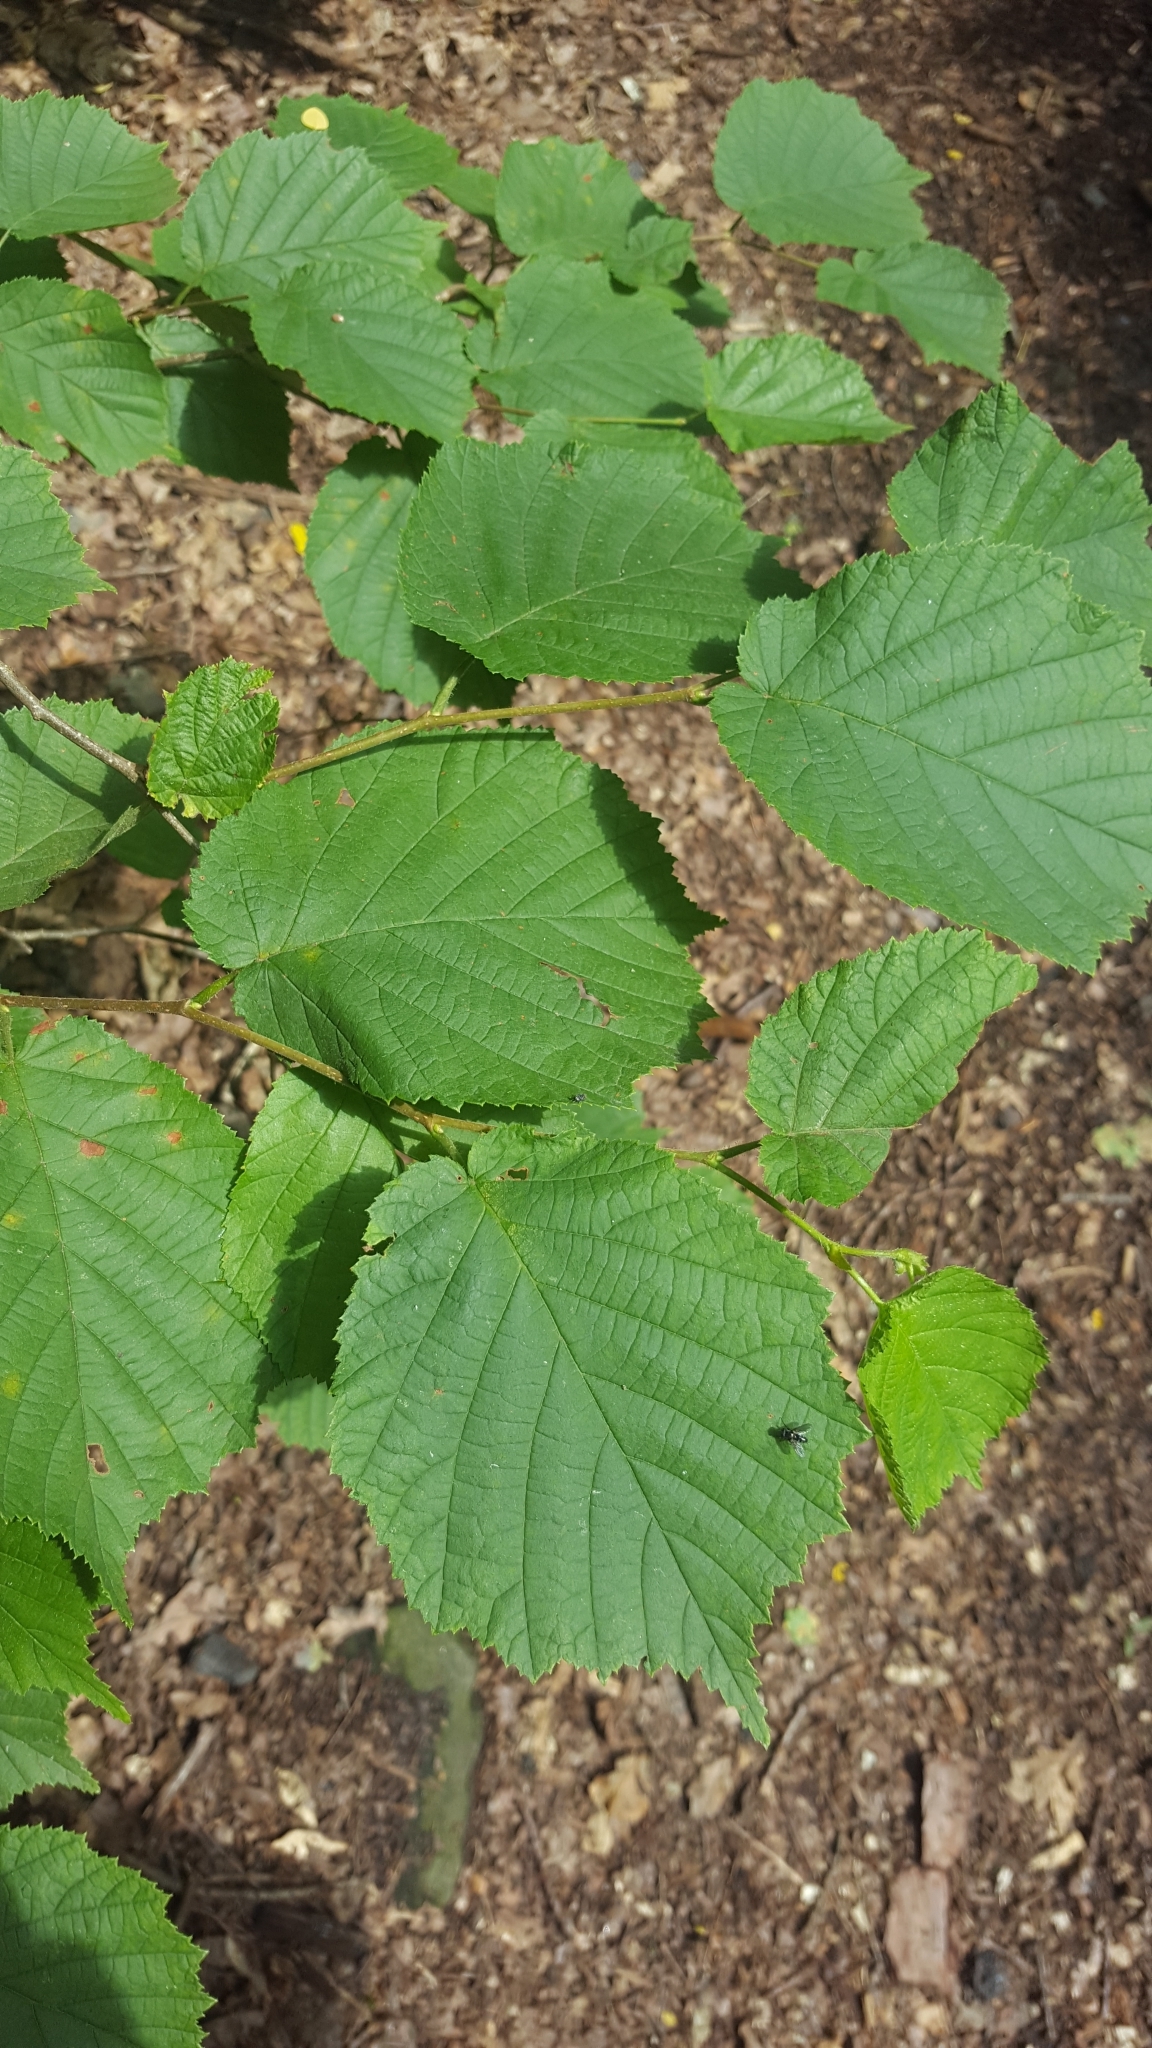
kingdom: Plantae
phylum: Tracheophyta
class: Magnoliopsida
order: Fagales
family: Betulaceae
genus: Corylus
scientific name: Corylus avellana
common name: European hazel
